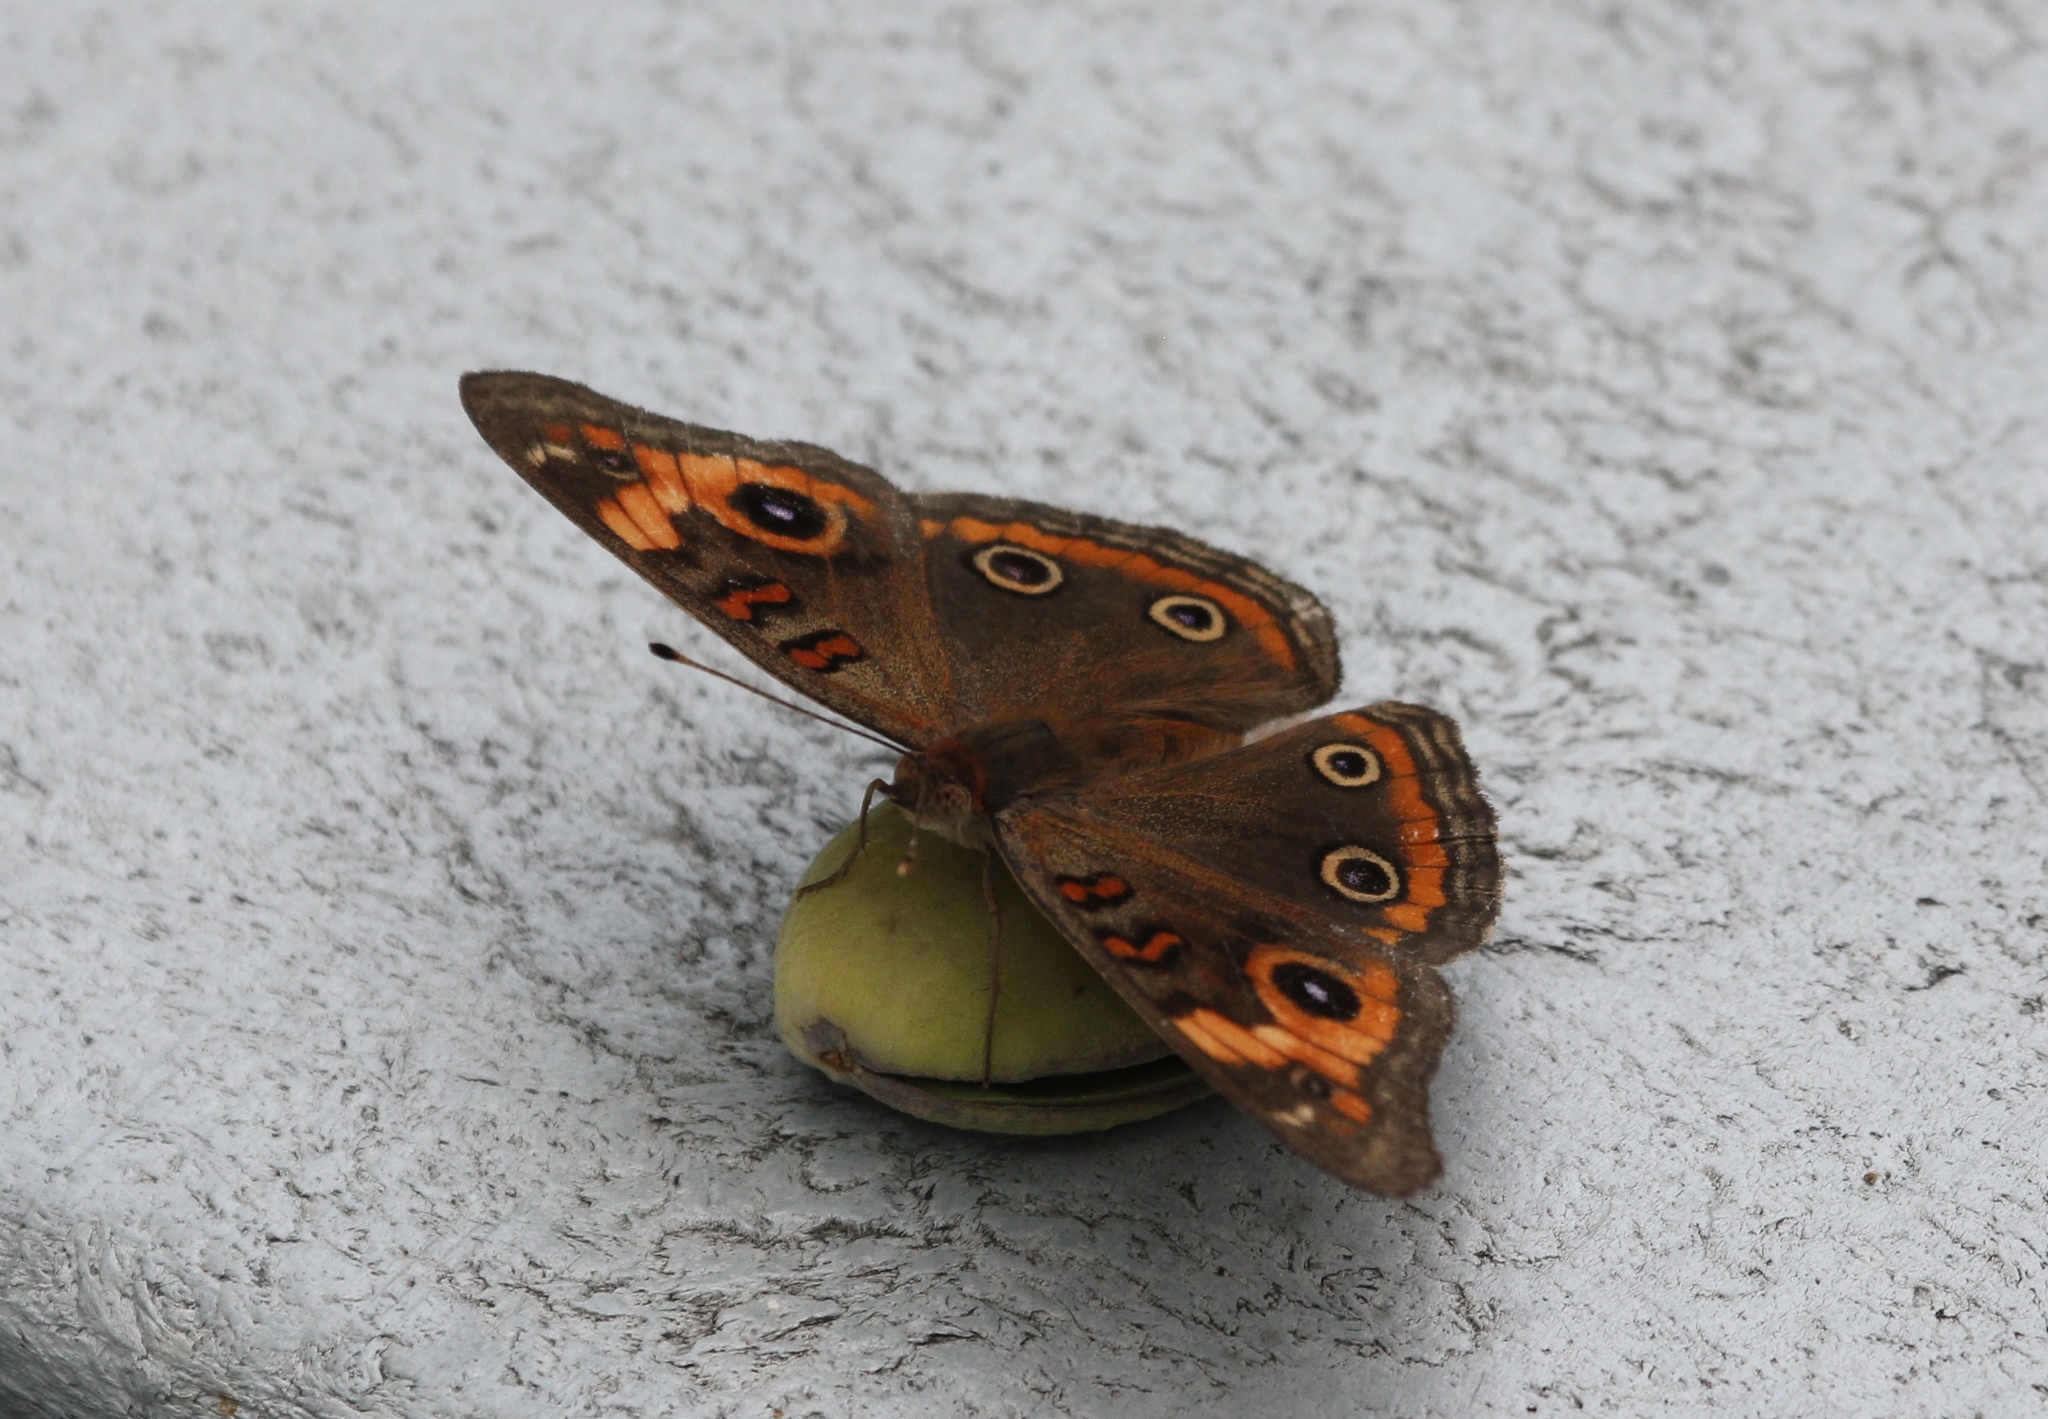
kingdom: Animalia
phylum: Arthropoda
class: Insecta
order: Lepidoptera
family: Nymphalidae
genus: Junonia
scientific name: Junonia neildi
